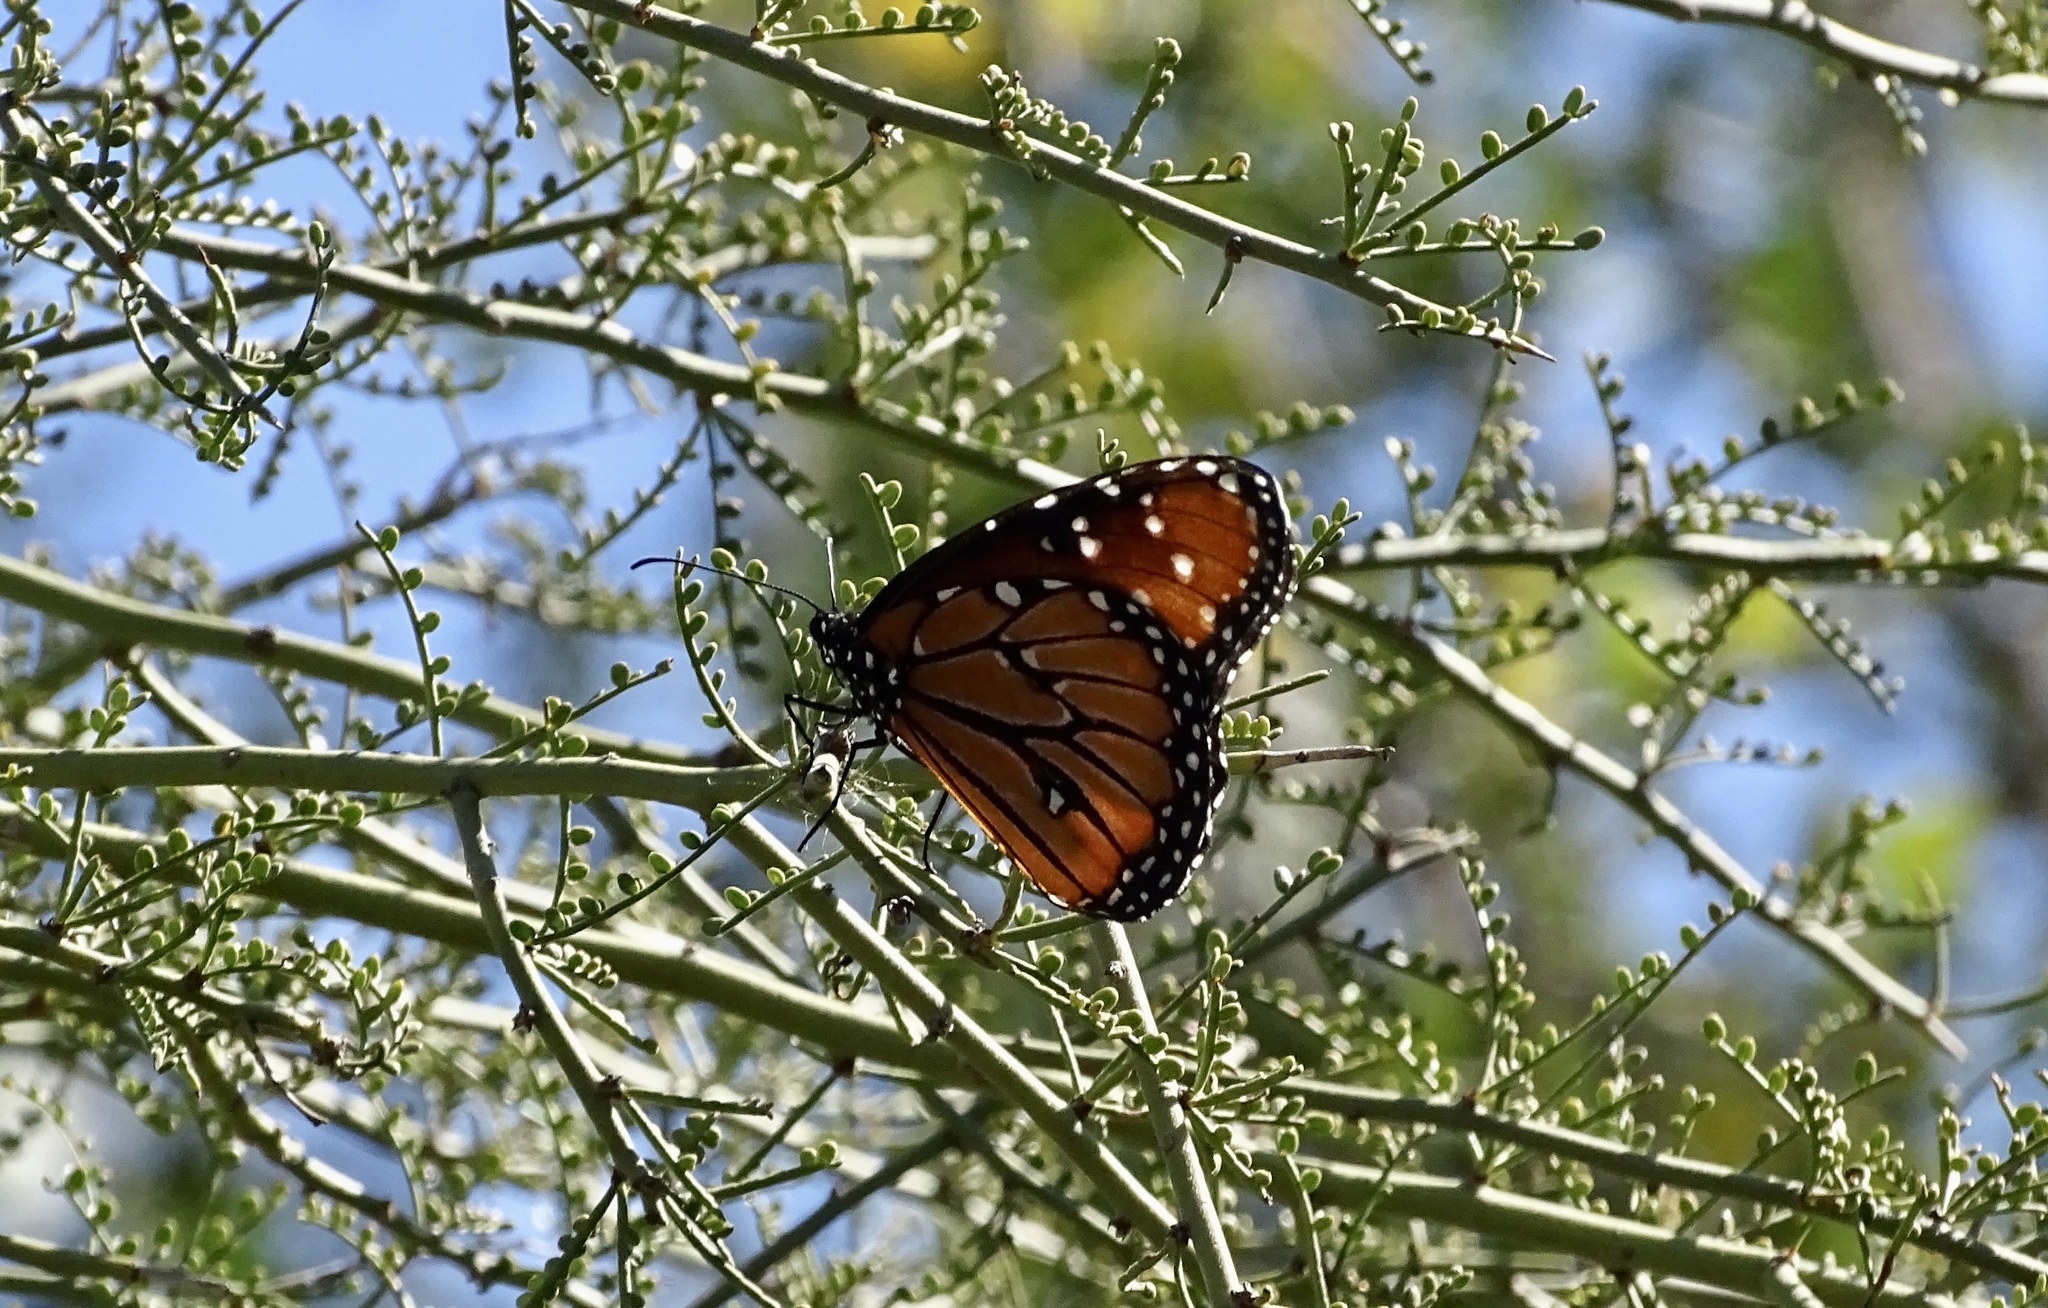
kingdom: Animalia
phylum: Arthropoda
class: Insecta
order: Lepidoptera
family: Nymphalidae
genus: Danaus
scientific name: Danaus gilippus
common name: Queen
